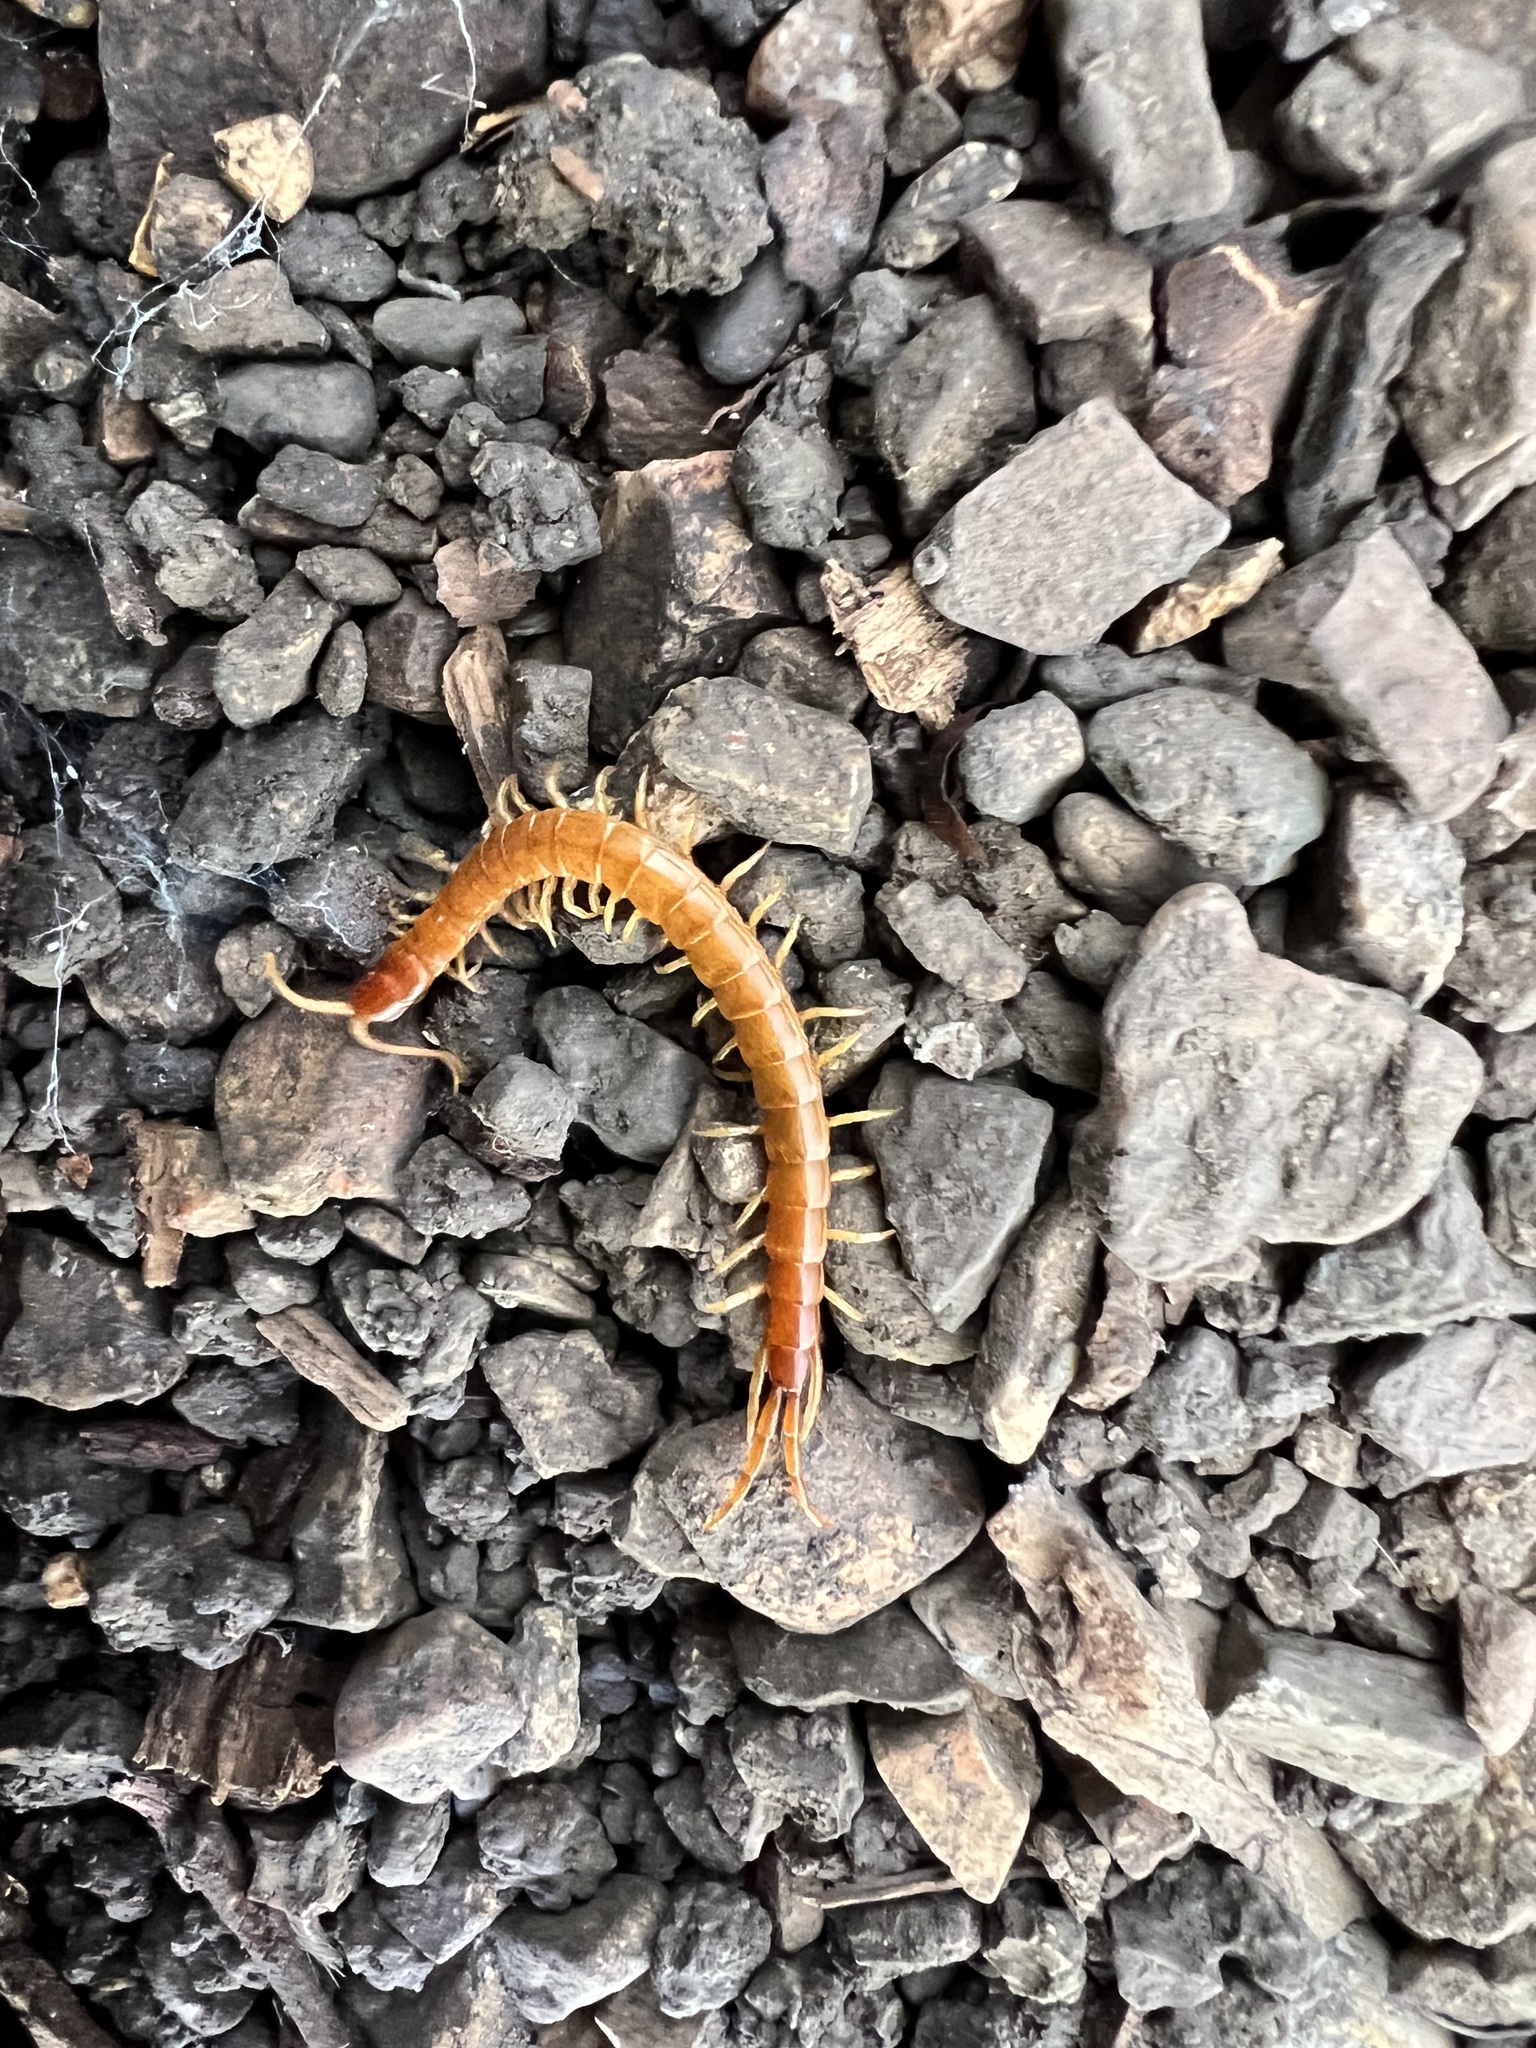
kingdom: Animalia
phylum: Arthropoda
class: Chilopoda
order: Scolopendromorpha
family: Scolopocryptopidae
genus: Scolopocryptops
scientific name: Scolopocryptops gracilis
